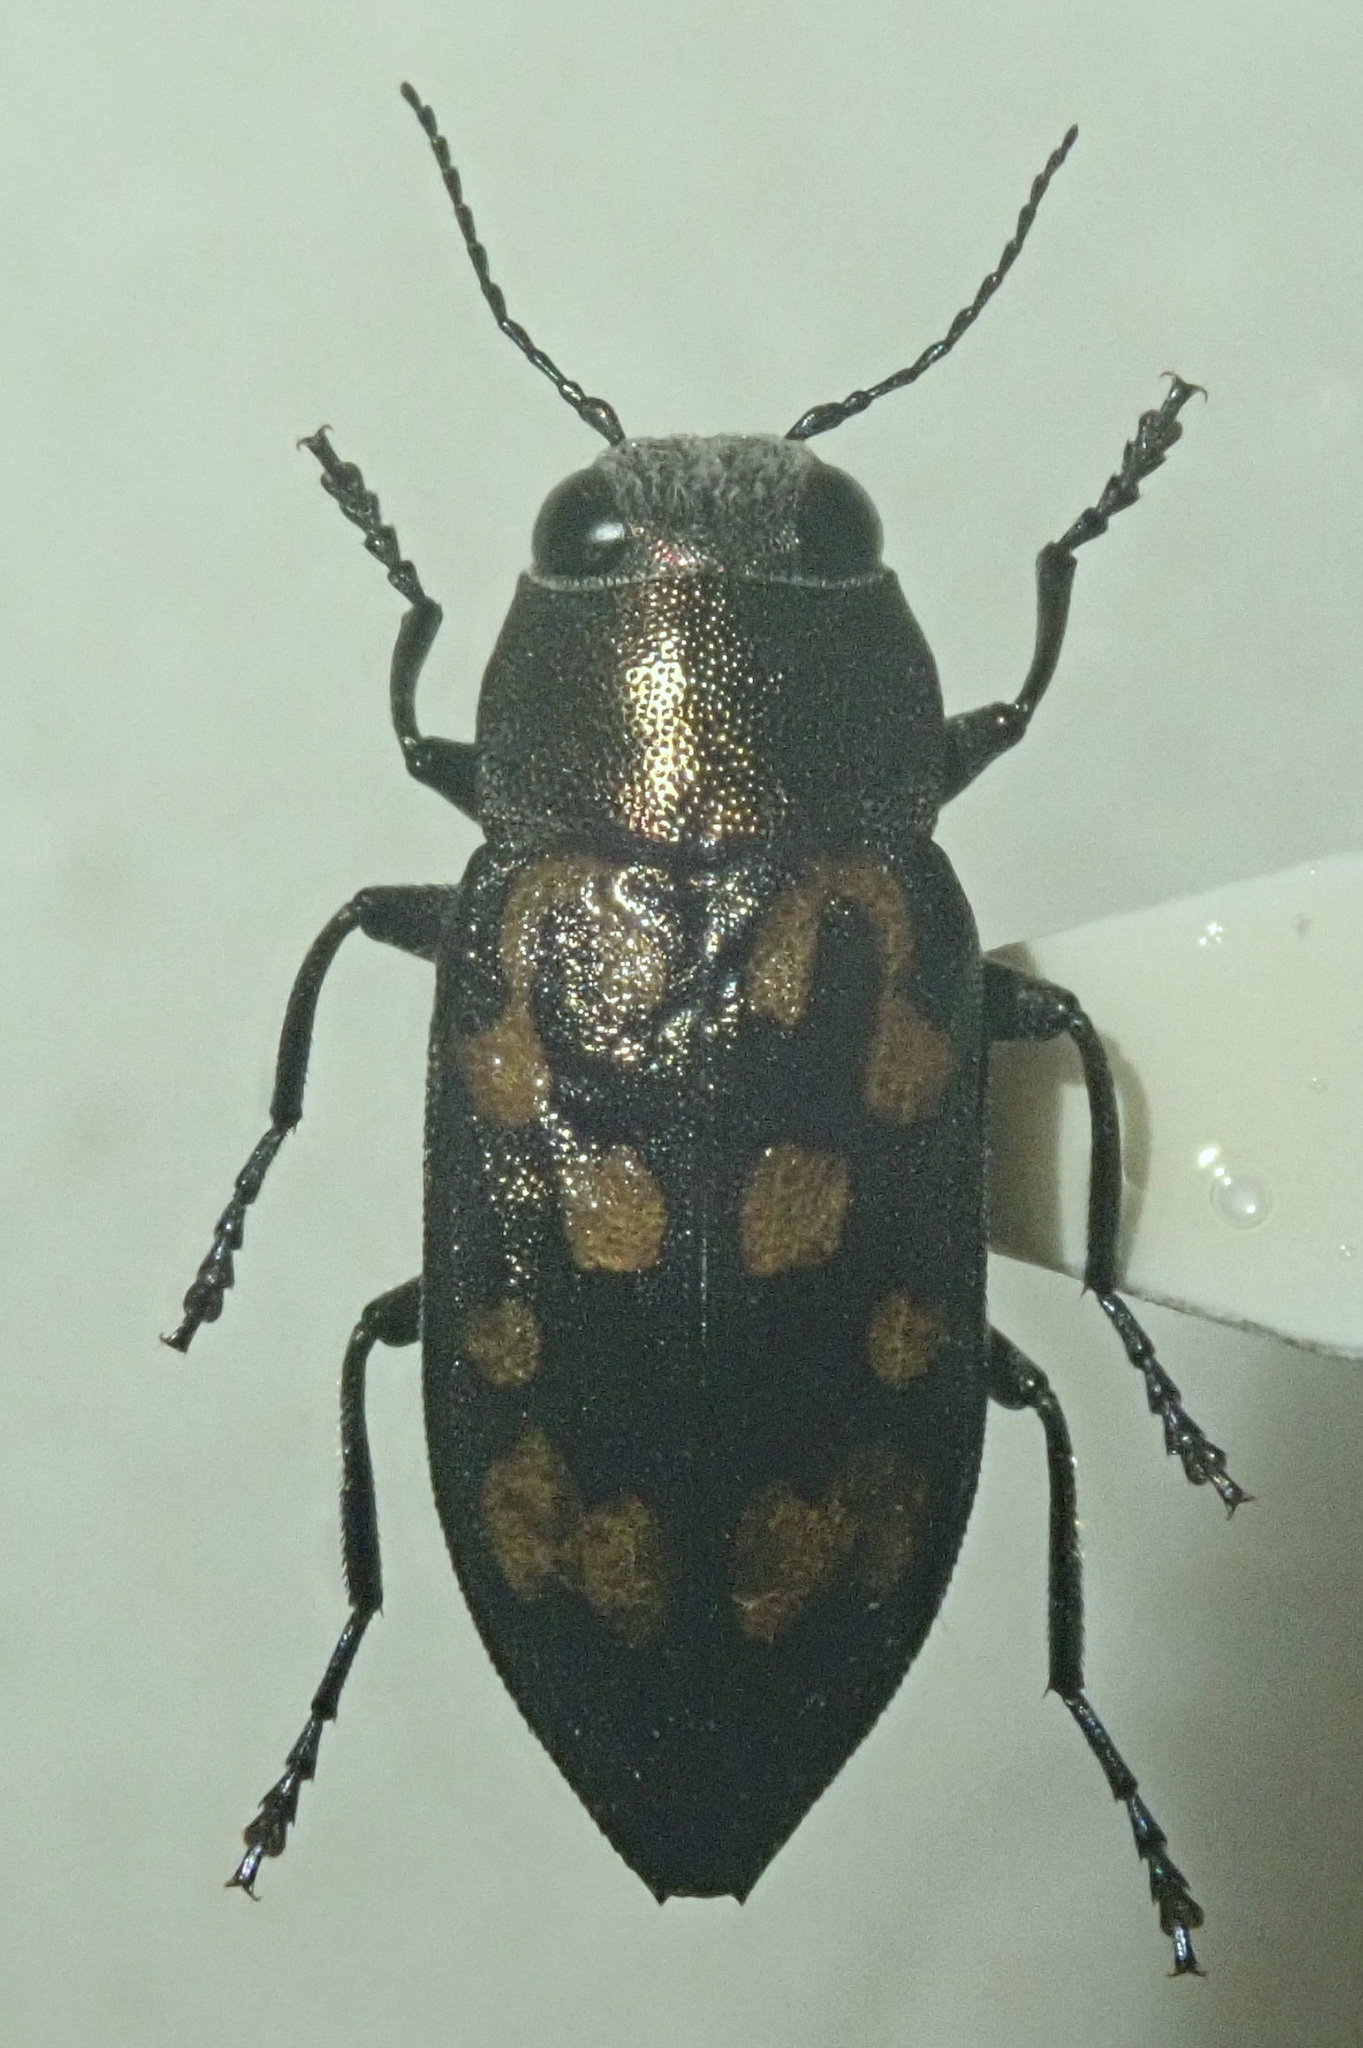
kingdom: Animalia
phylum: Arthropoda
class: Insecta
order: Coleoptera
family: Buprestidae
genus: Trachypteris
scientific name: Trachypteris picta
